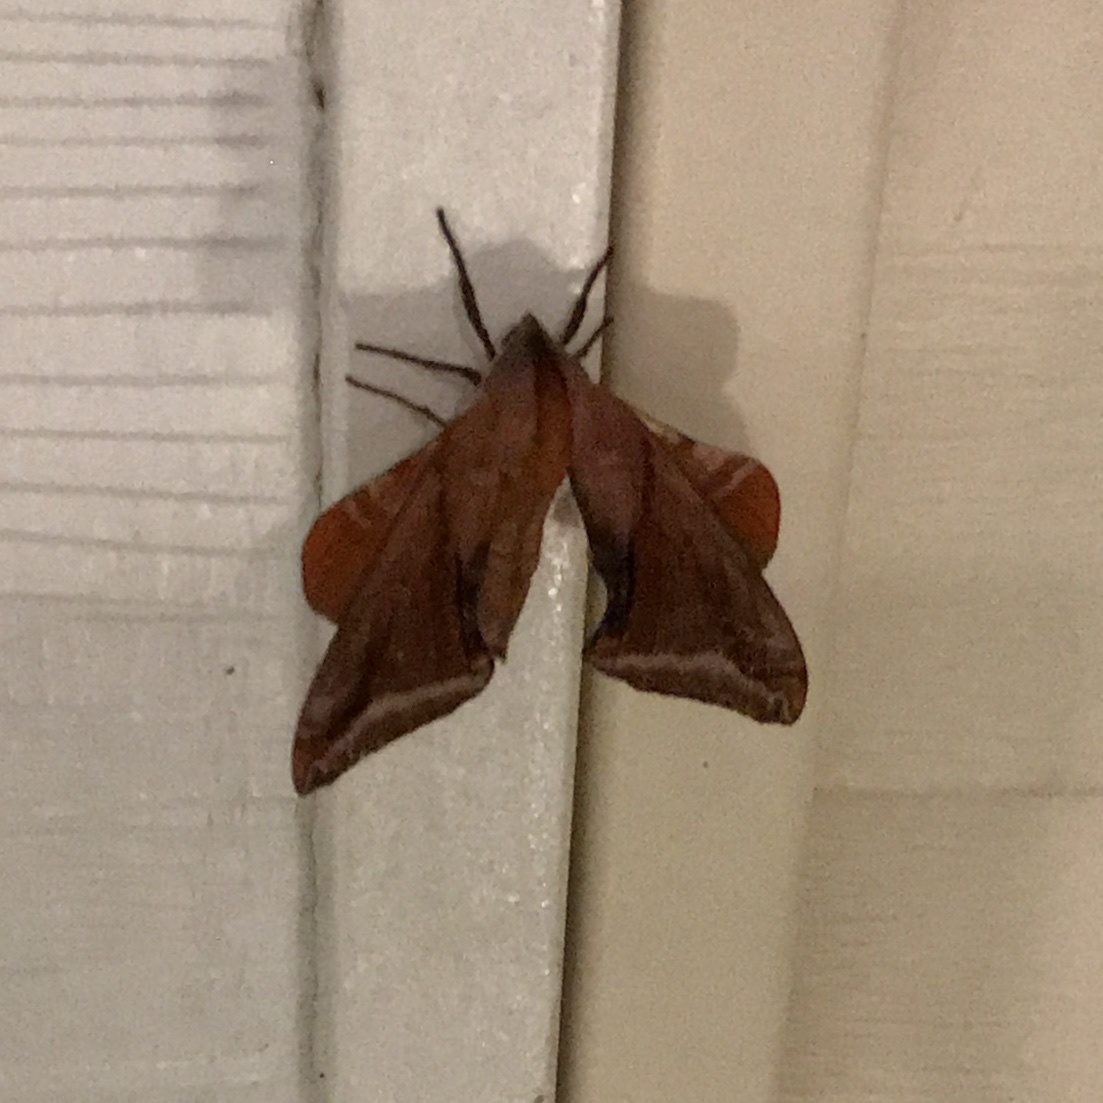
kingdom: Animalia
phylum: Arthropoda
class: Insecta
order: Lepidoptera
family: Sphingidae
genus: Paonias
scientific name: Paonias astylus
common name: Huckleberry sphinx
